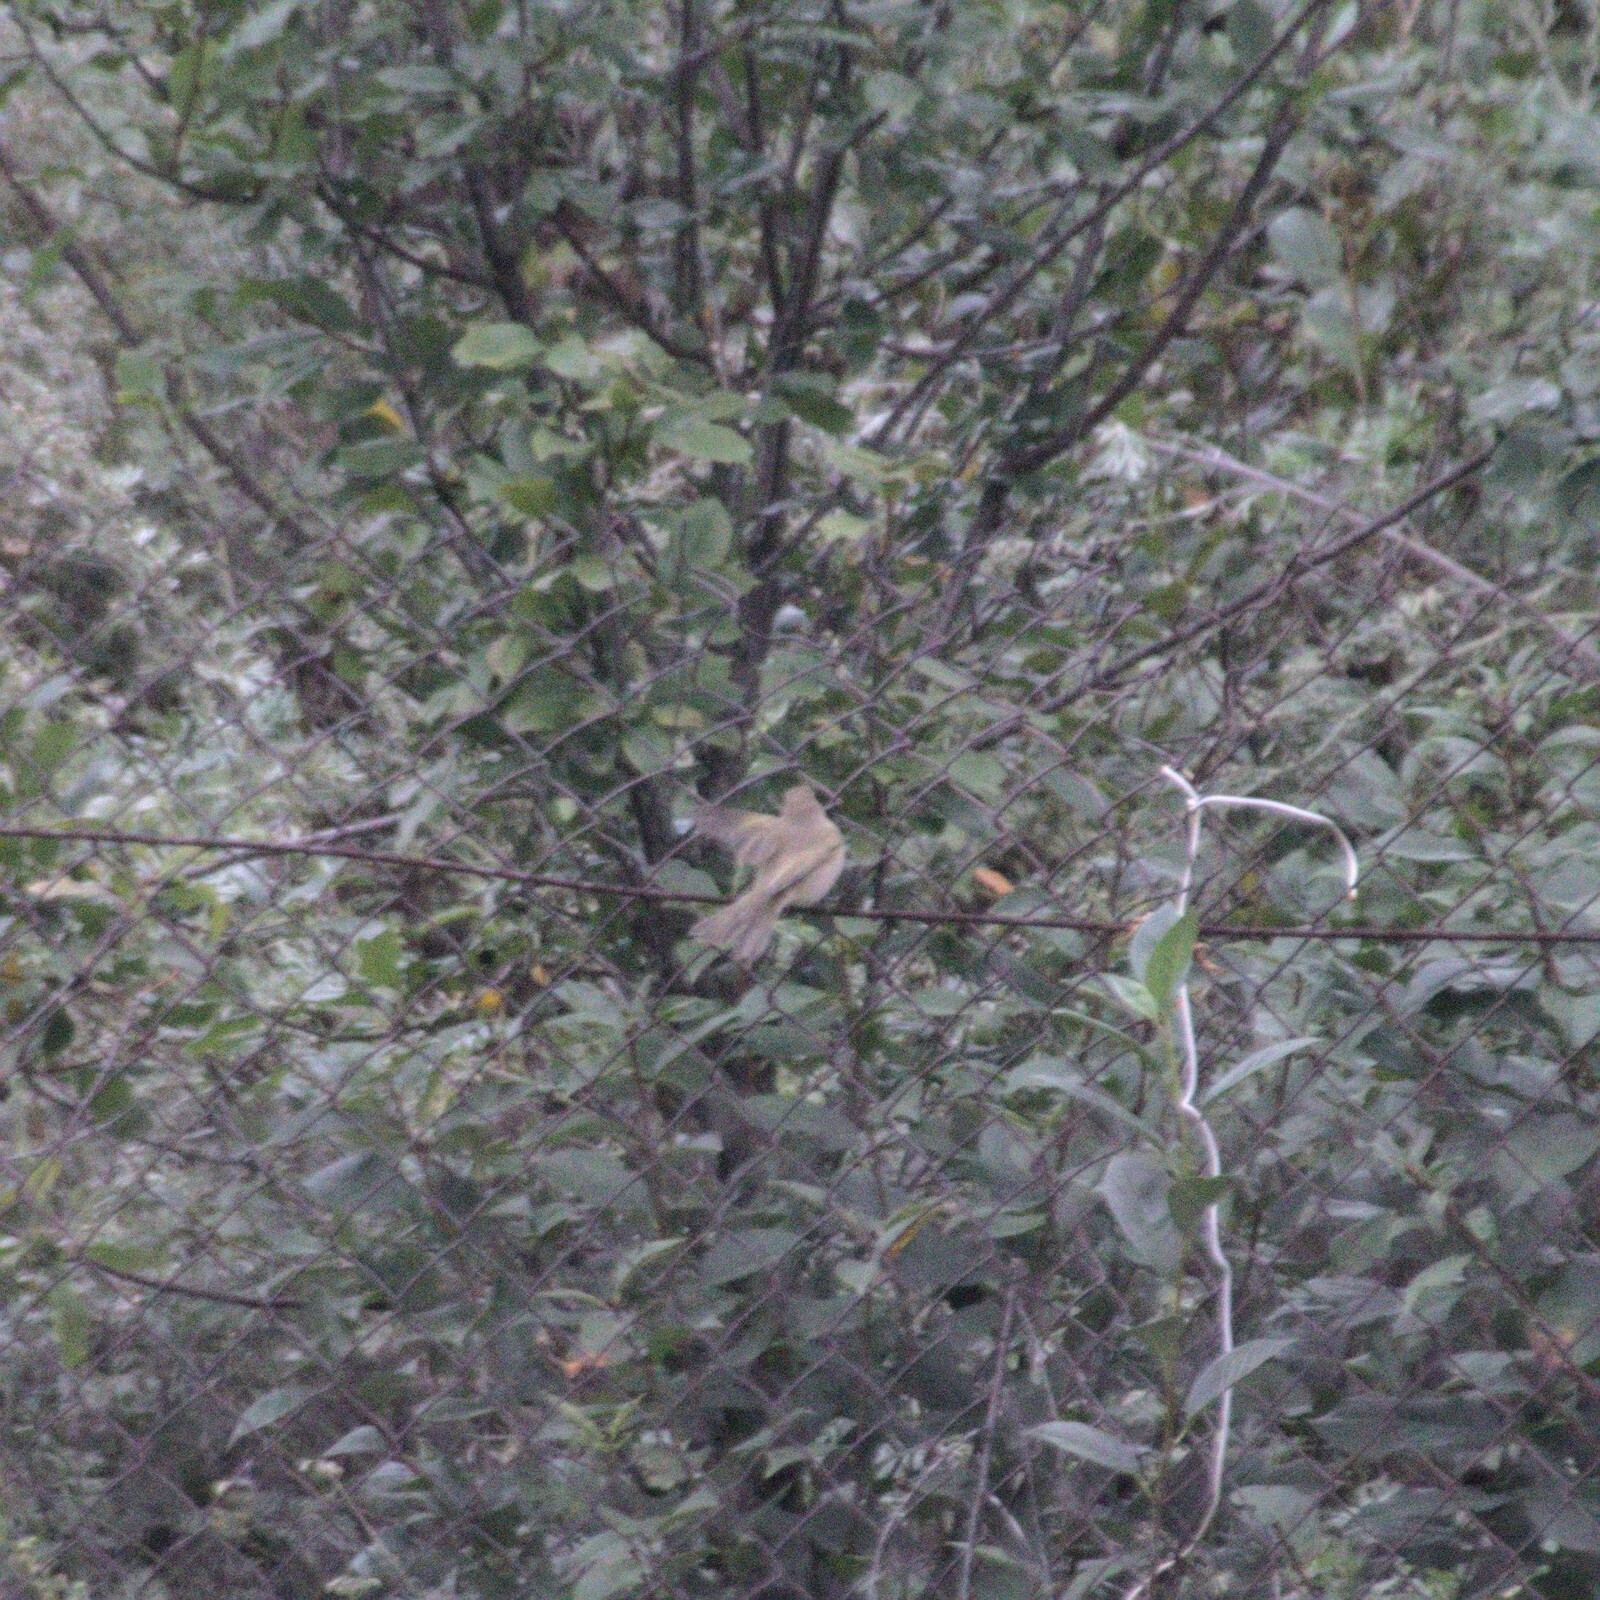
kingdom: Animalia
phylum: Chordata
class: Aves
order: Passeriformes
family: Phylloscopidae
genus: Phylloscopus
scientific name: Phylloscopus collybita
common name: Common chiffchaff
